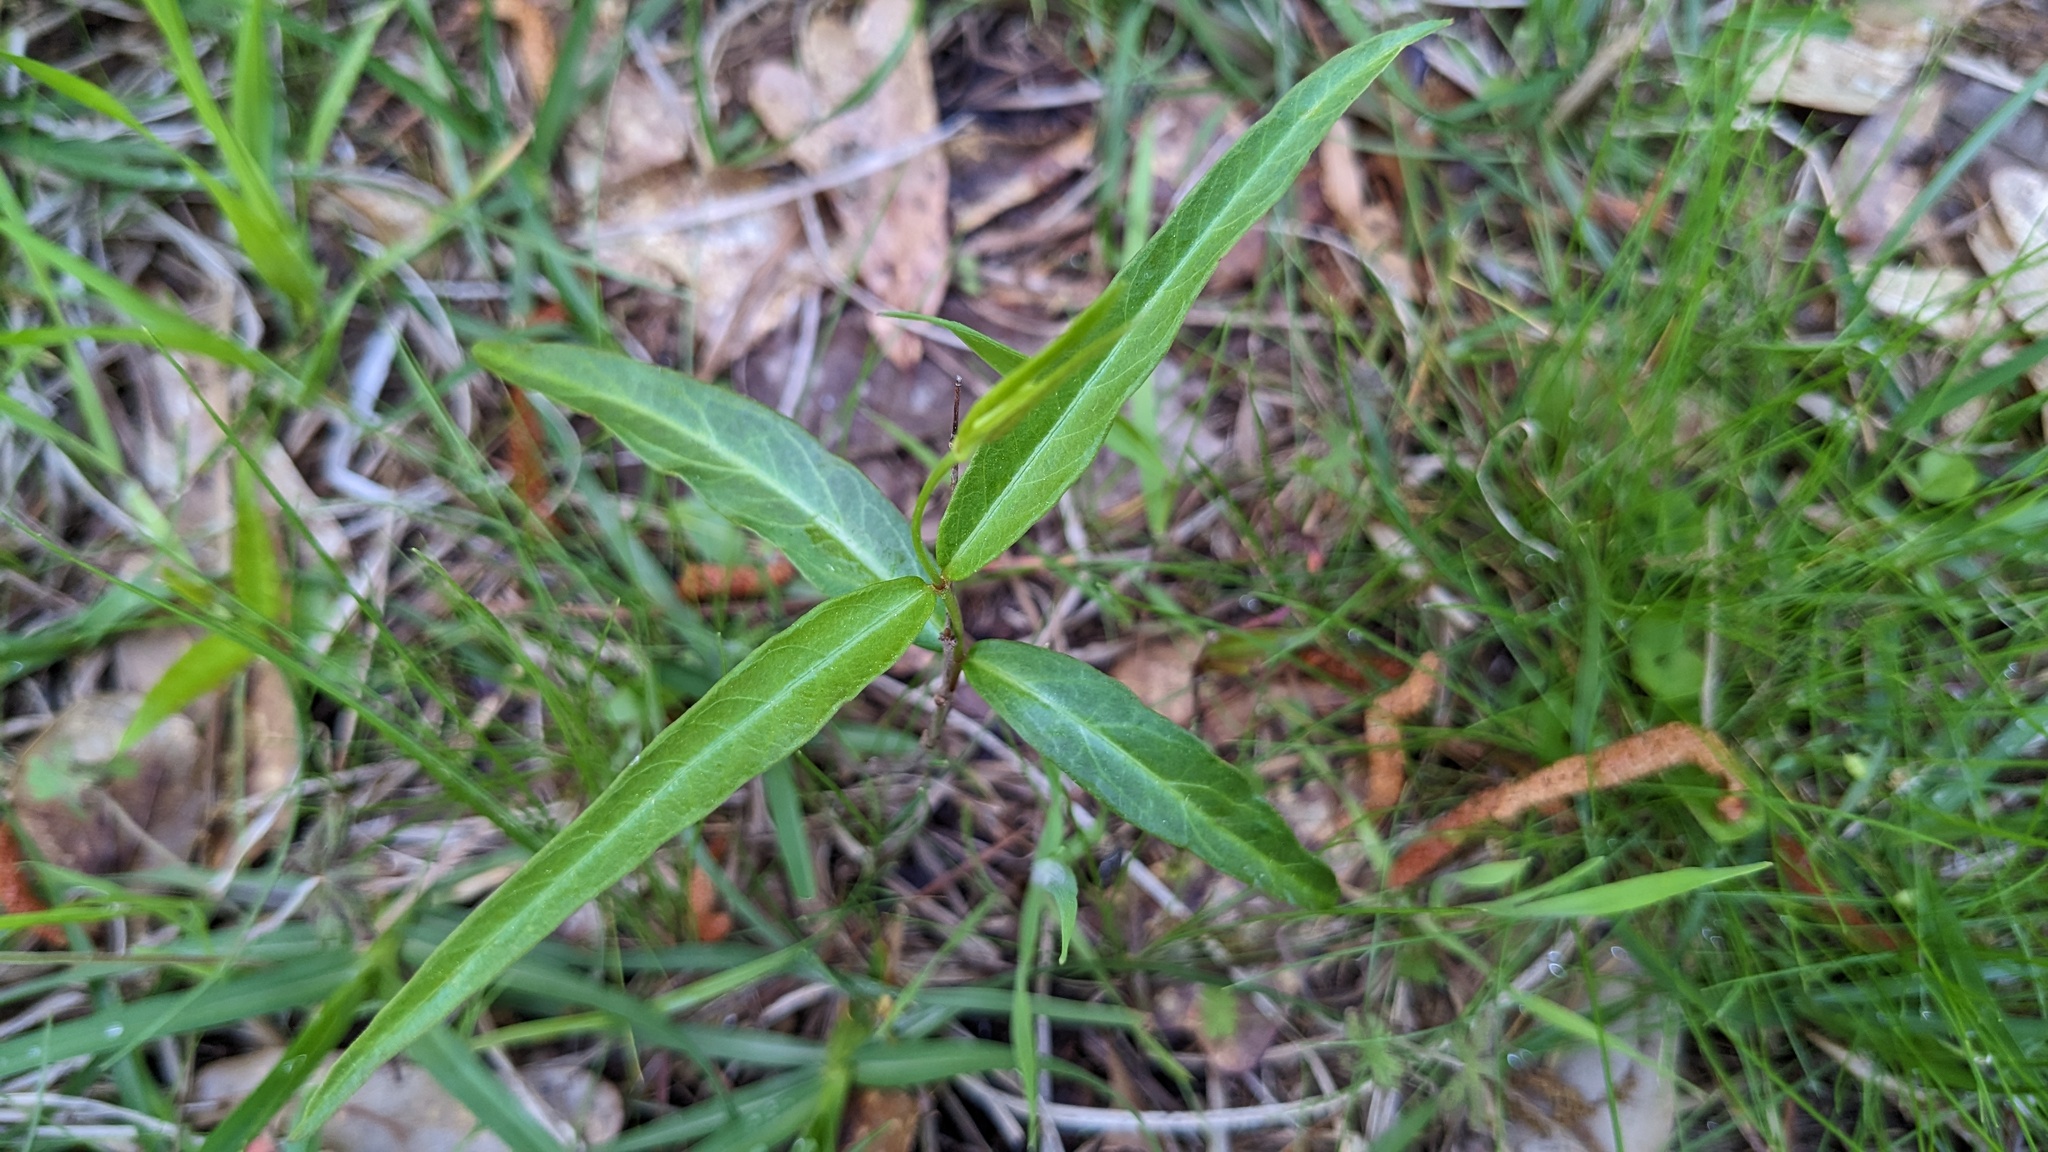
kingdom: Plantae
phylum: Tracheophyta
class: Magnoliopsida
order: Gentianales
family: Apocynaceae
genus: Thyrsanthella
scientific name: Thyrsanthella difformis
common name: Climbing dogbane
